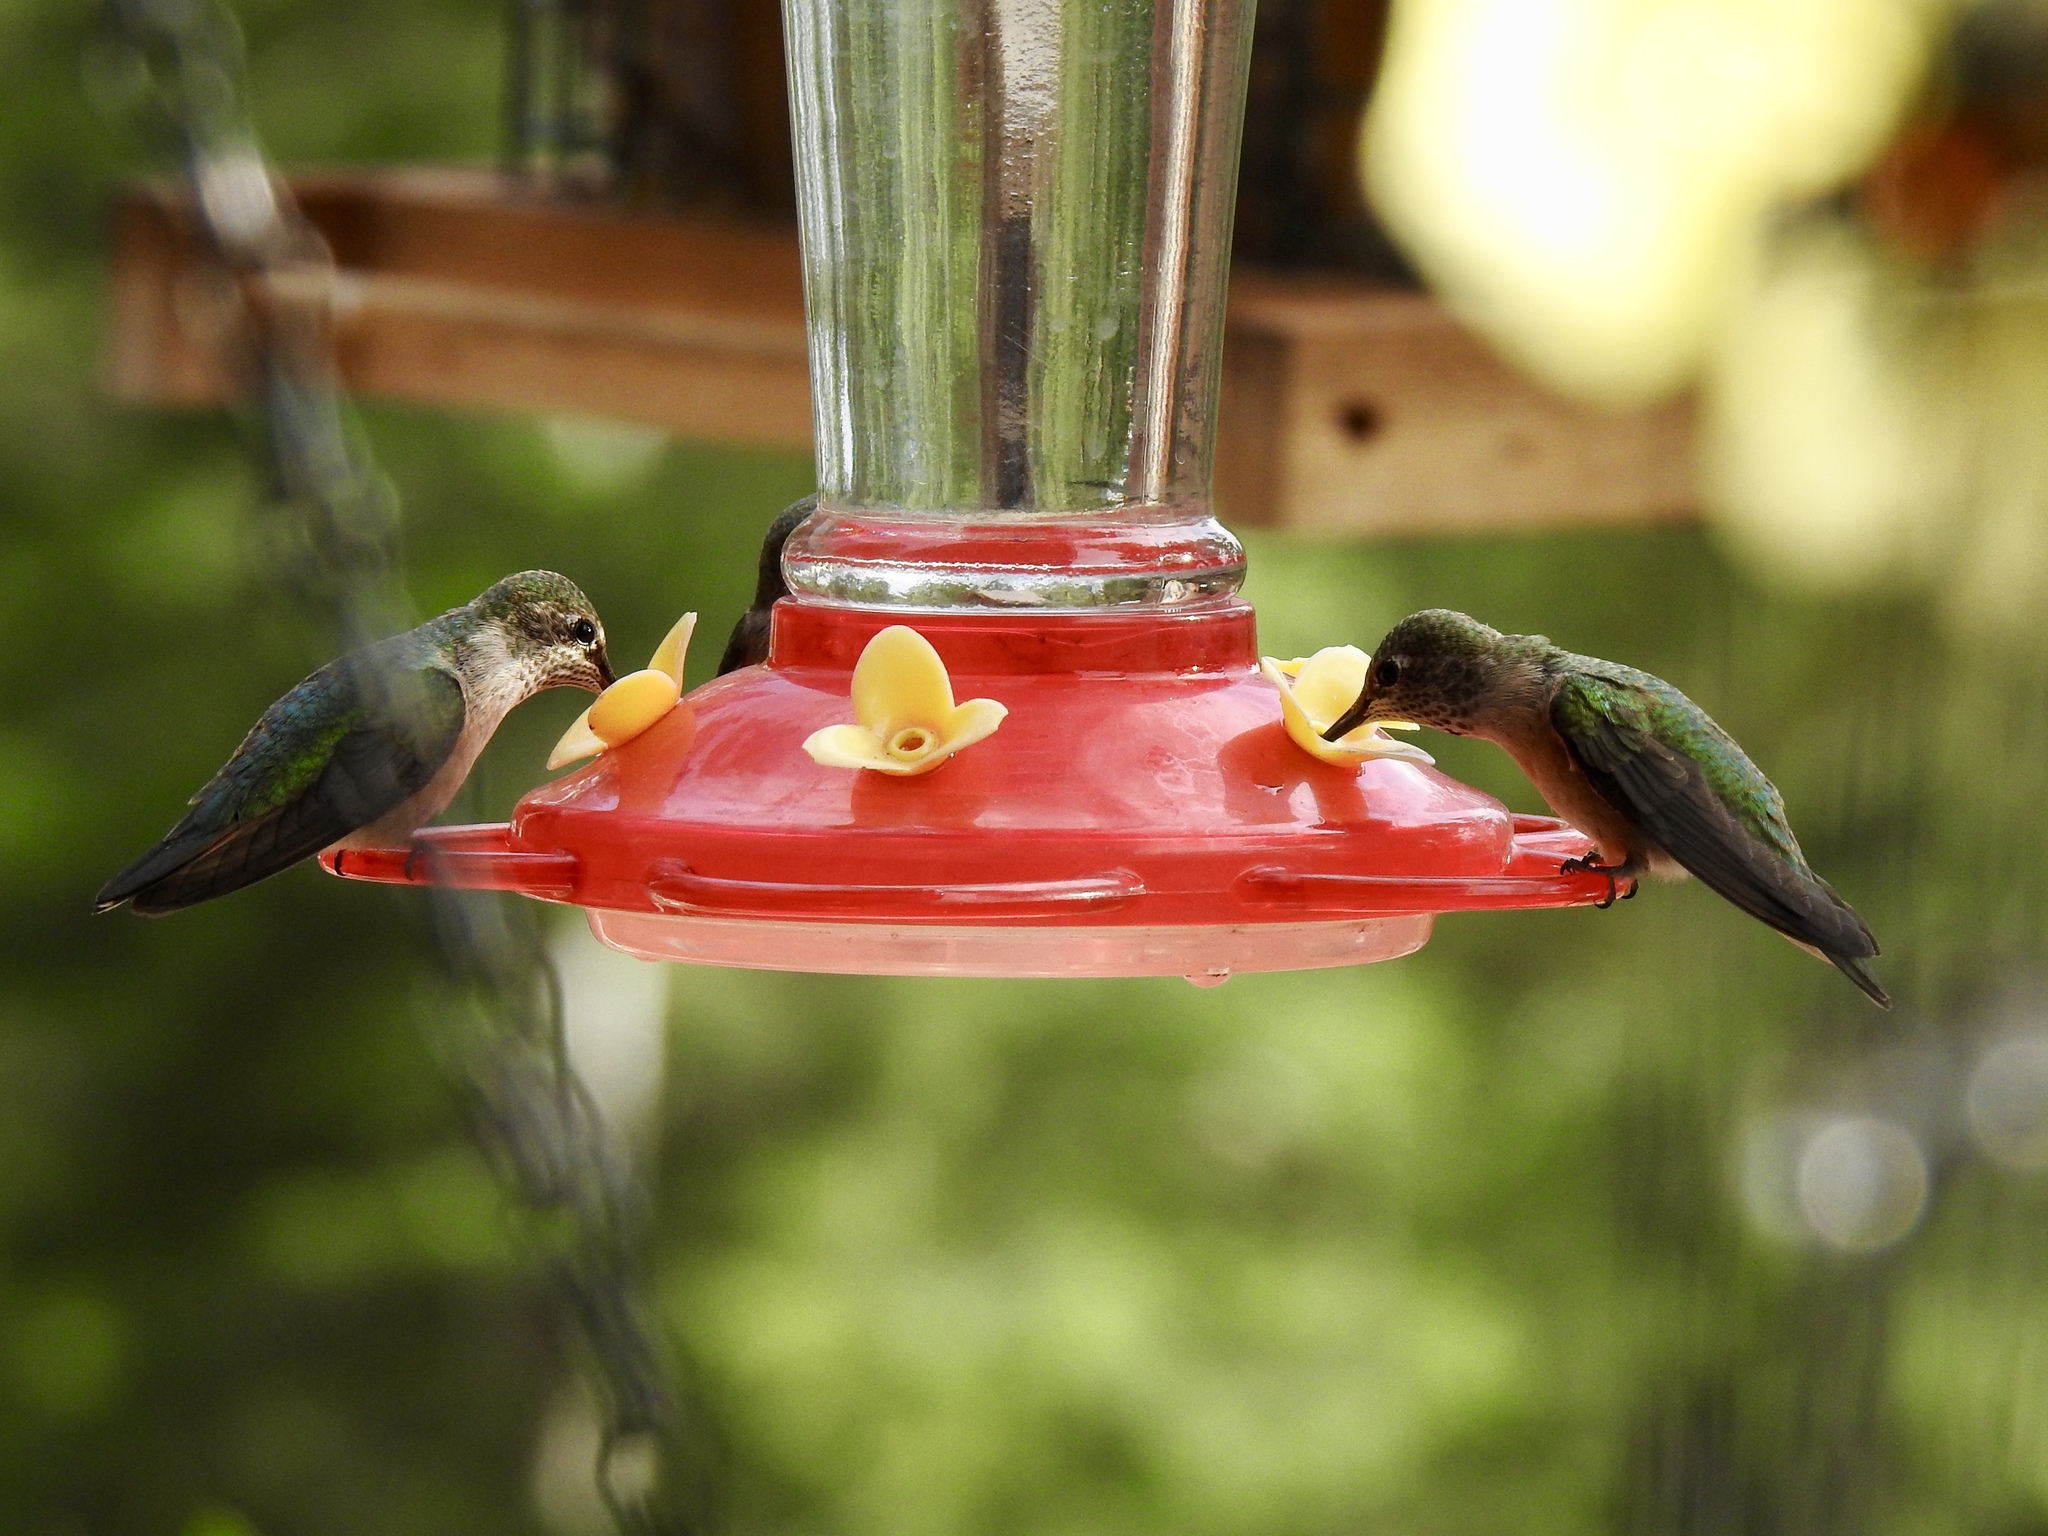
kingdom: Animalia
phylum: Chordata
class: Aves
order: Apodiformes
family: Trochilidae
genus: Selasphorus
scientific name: Selasphorus platycercus
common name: Broad-tailed hummingbird
